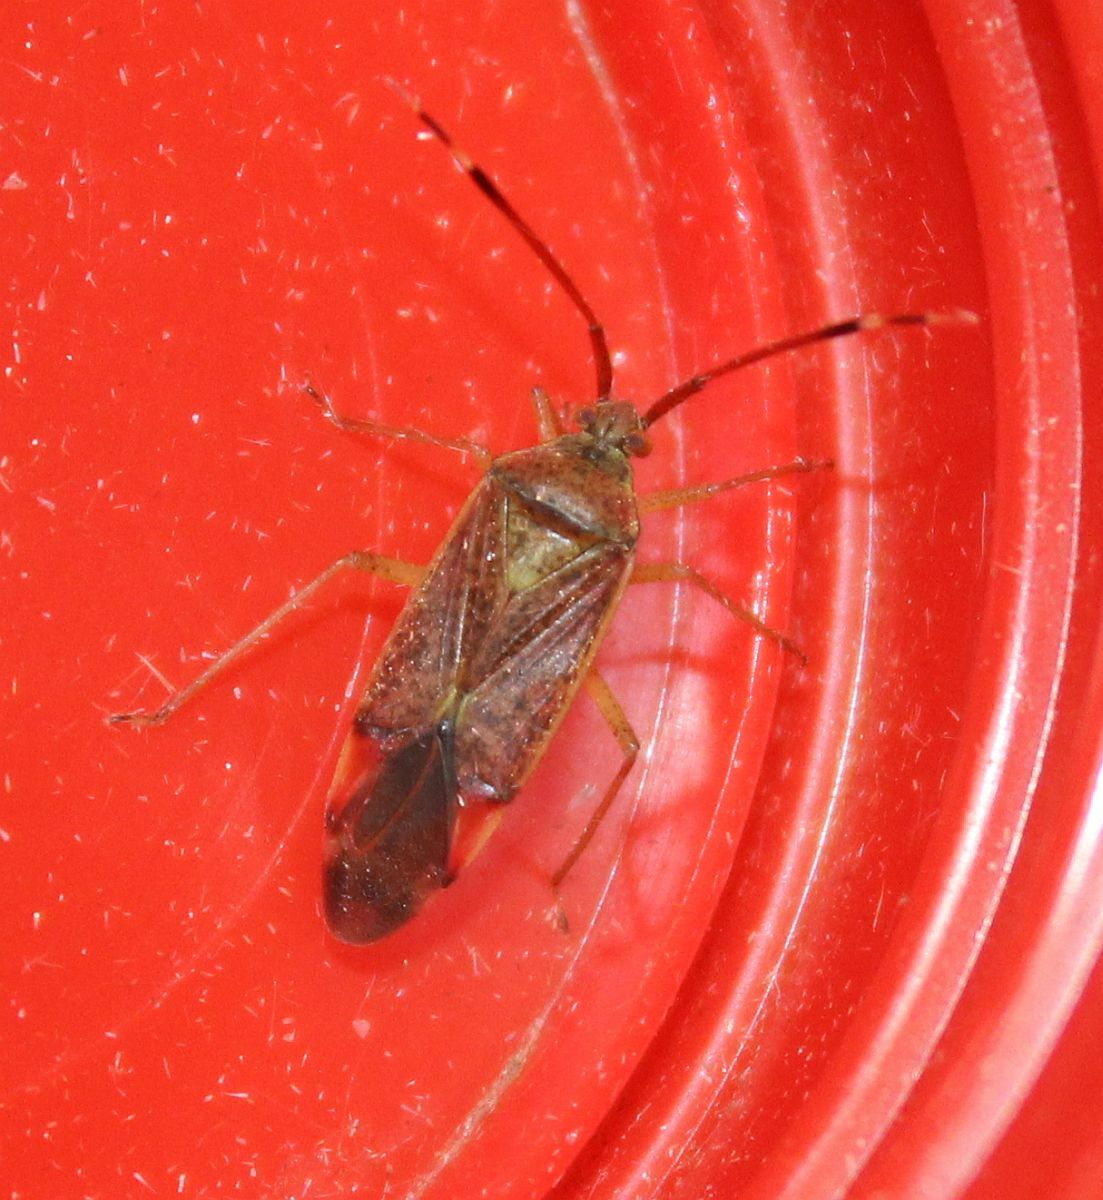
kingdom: Animalia
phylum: Arthropoda
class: Insecta
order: Hemiptera
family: Miridae
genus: Pantilius
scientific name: Pantilius tunicatus
